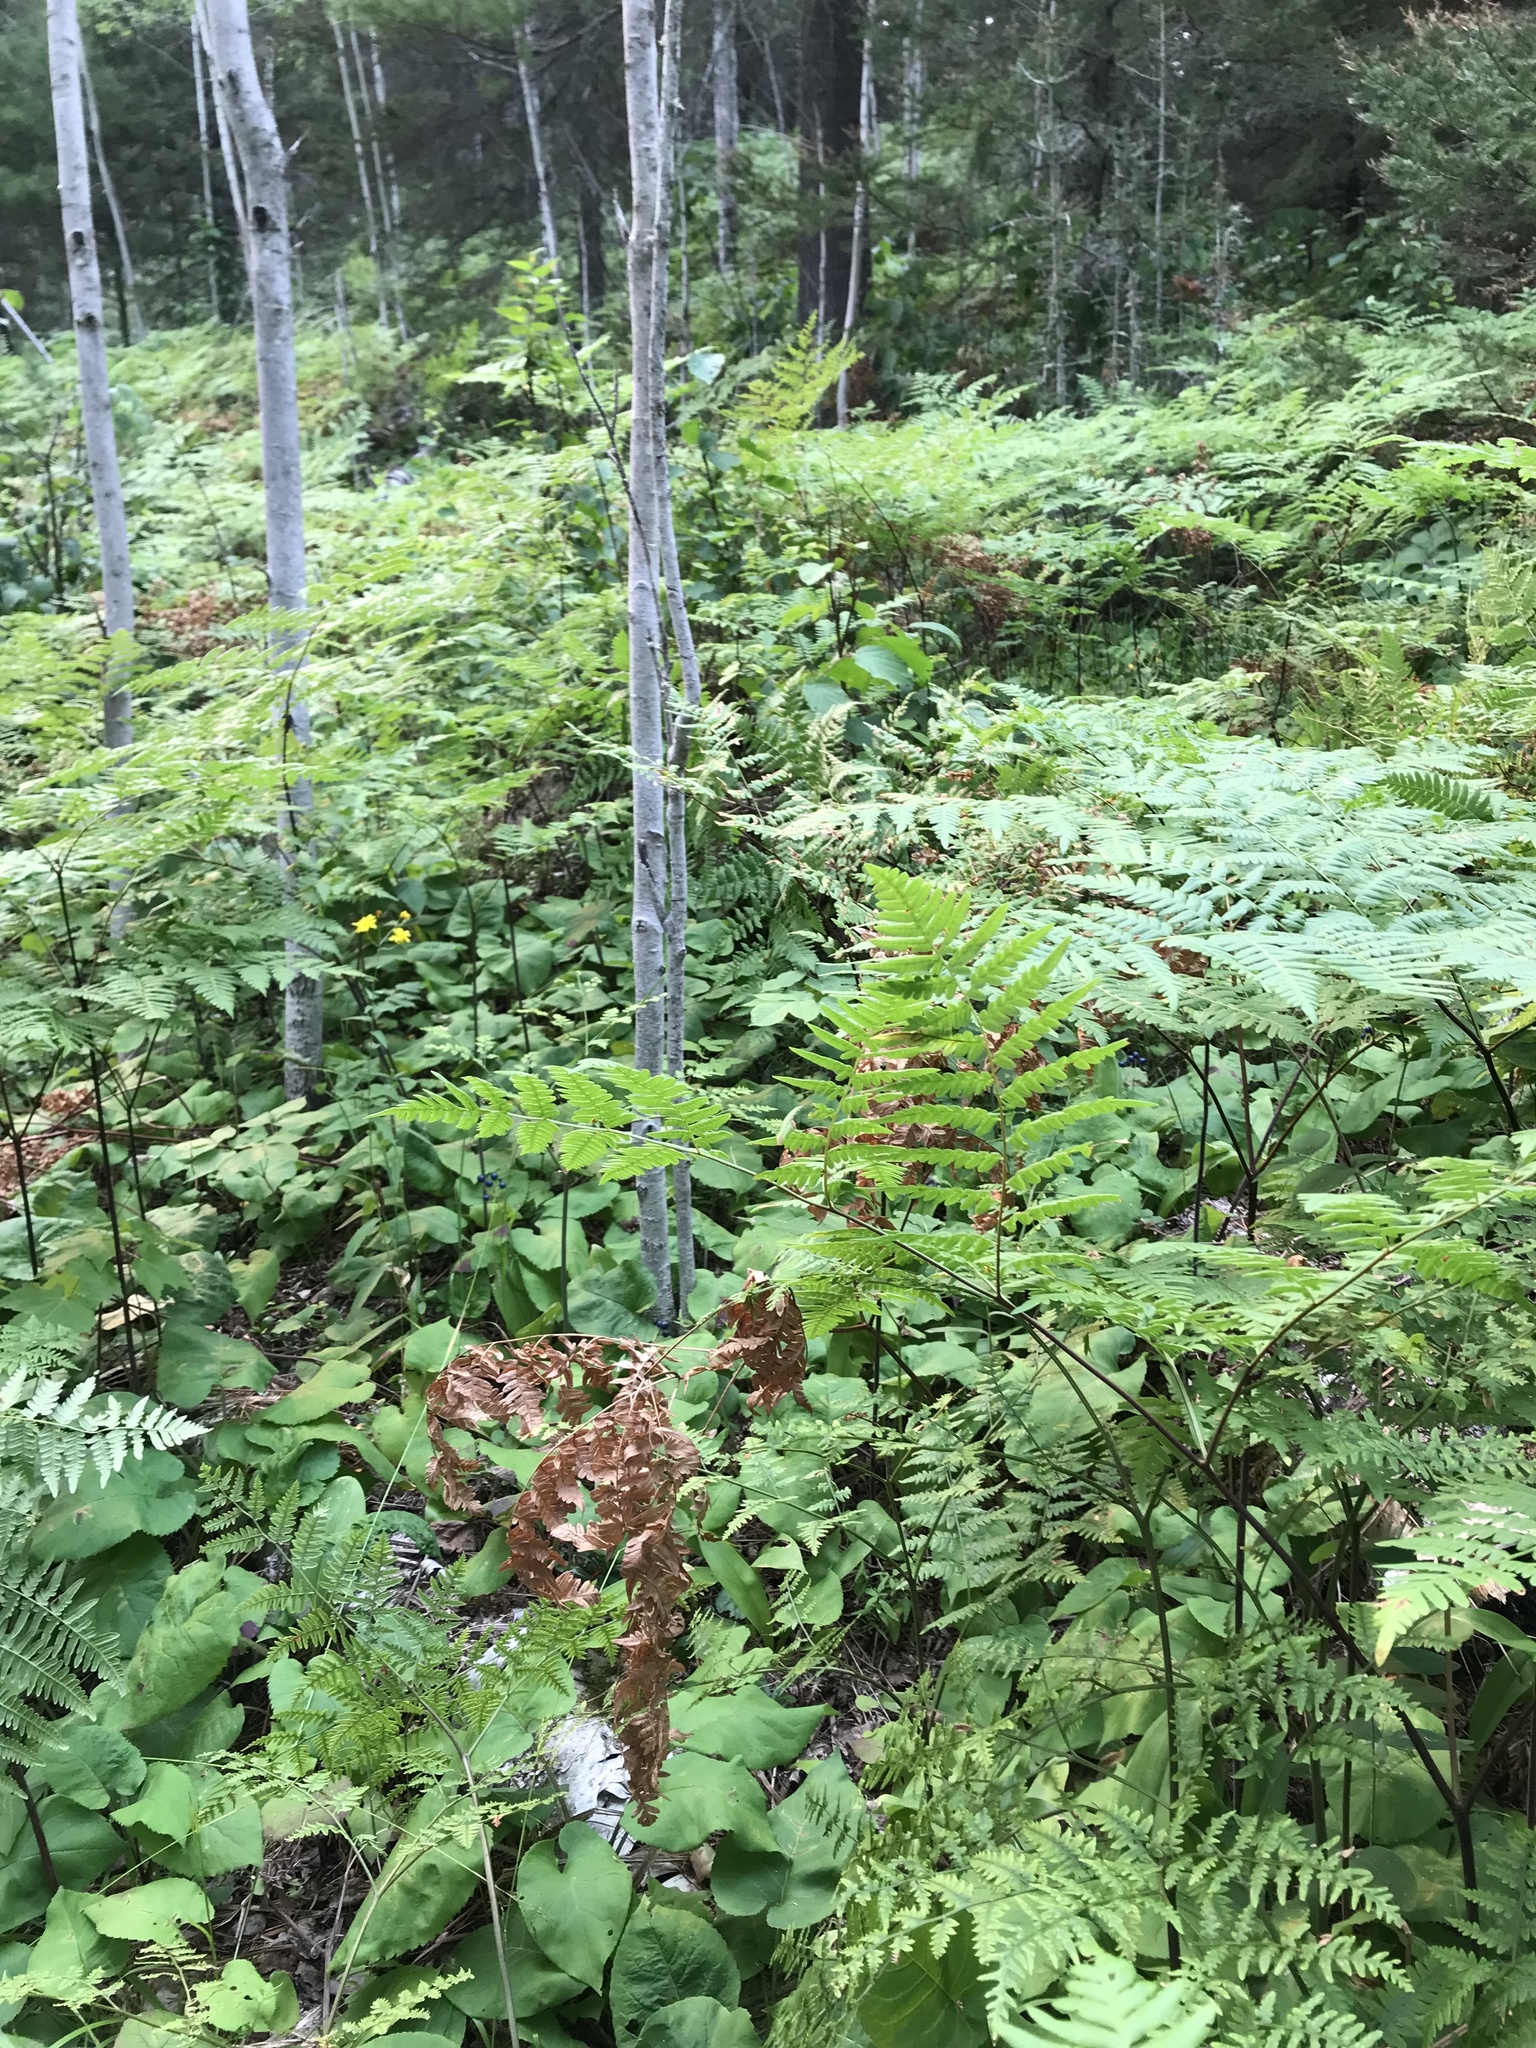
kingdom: Plantae
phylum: Tracheophyta
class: Polypodiopsida
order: Polypodiales
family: Dennstaedtiaceae
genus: Pteridium
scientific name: Pteridium aquilinum
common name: Bracken
